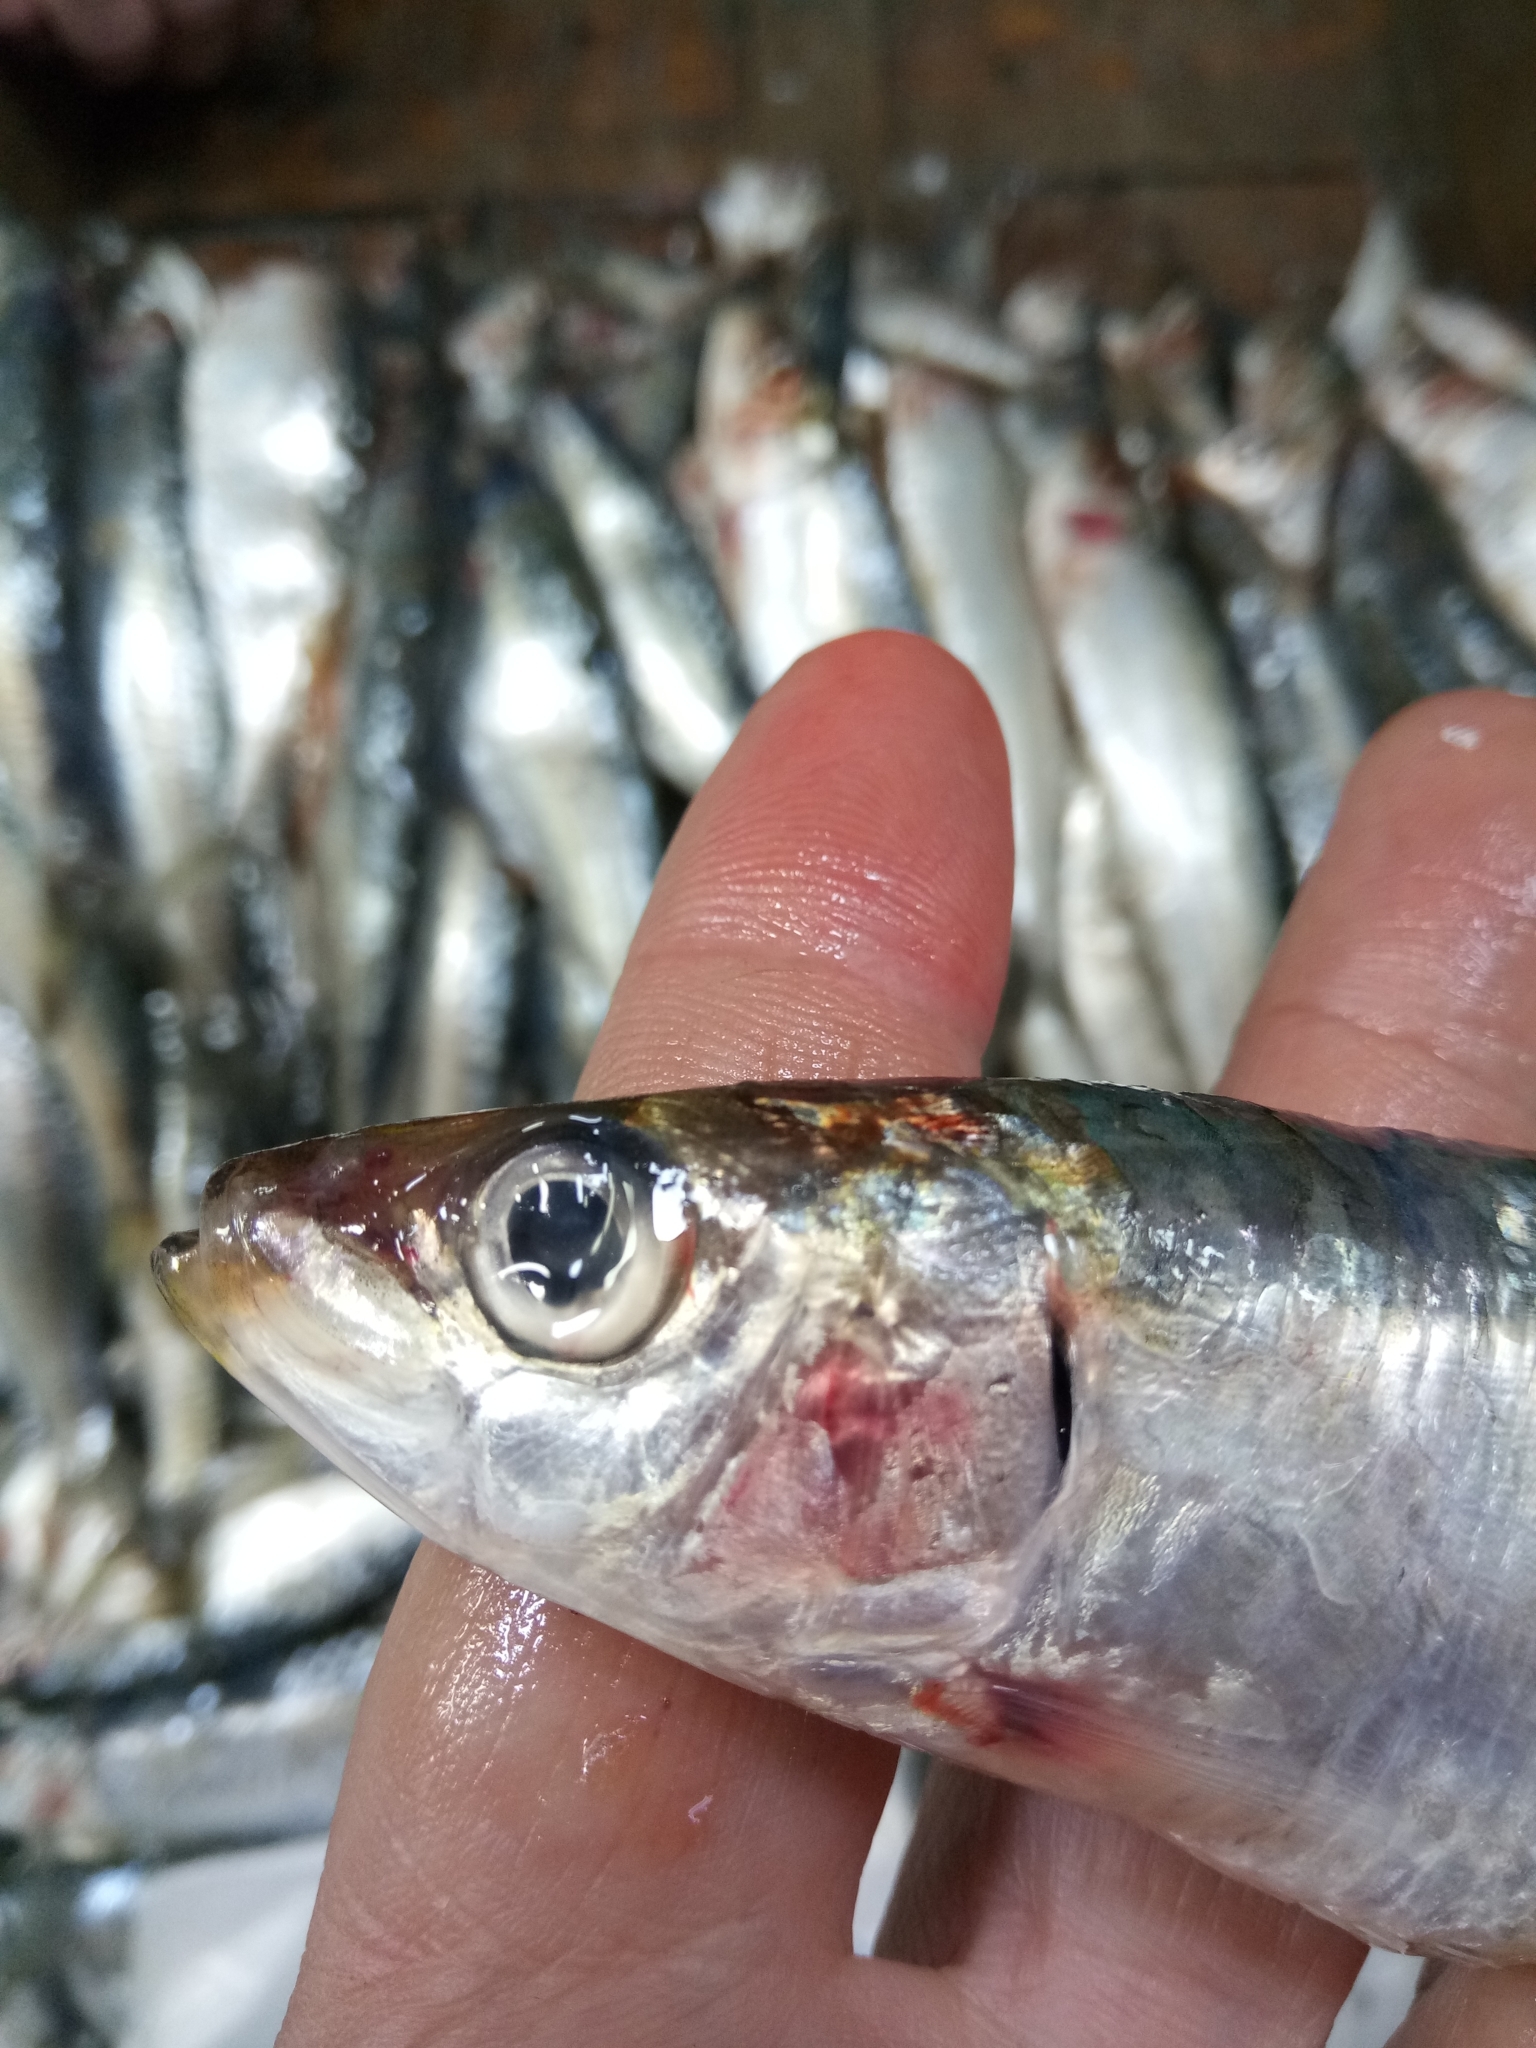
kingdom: Animalia
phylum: Chordata
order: Clupeiformes
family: Clupeidae
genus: Sardina
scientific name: Sardina pilchardus
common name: Pilchard
